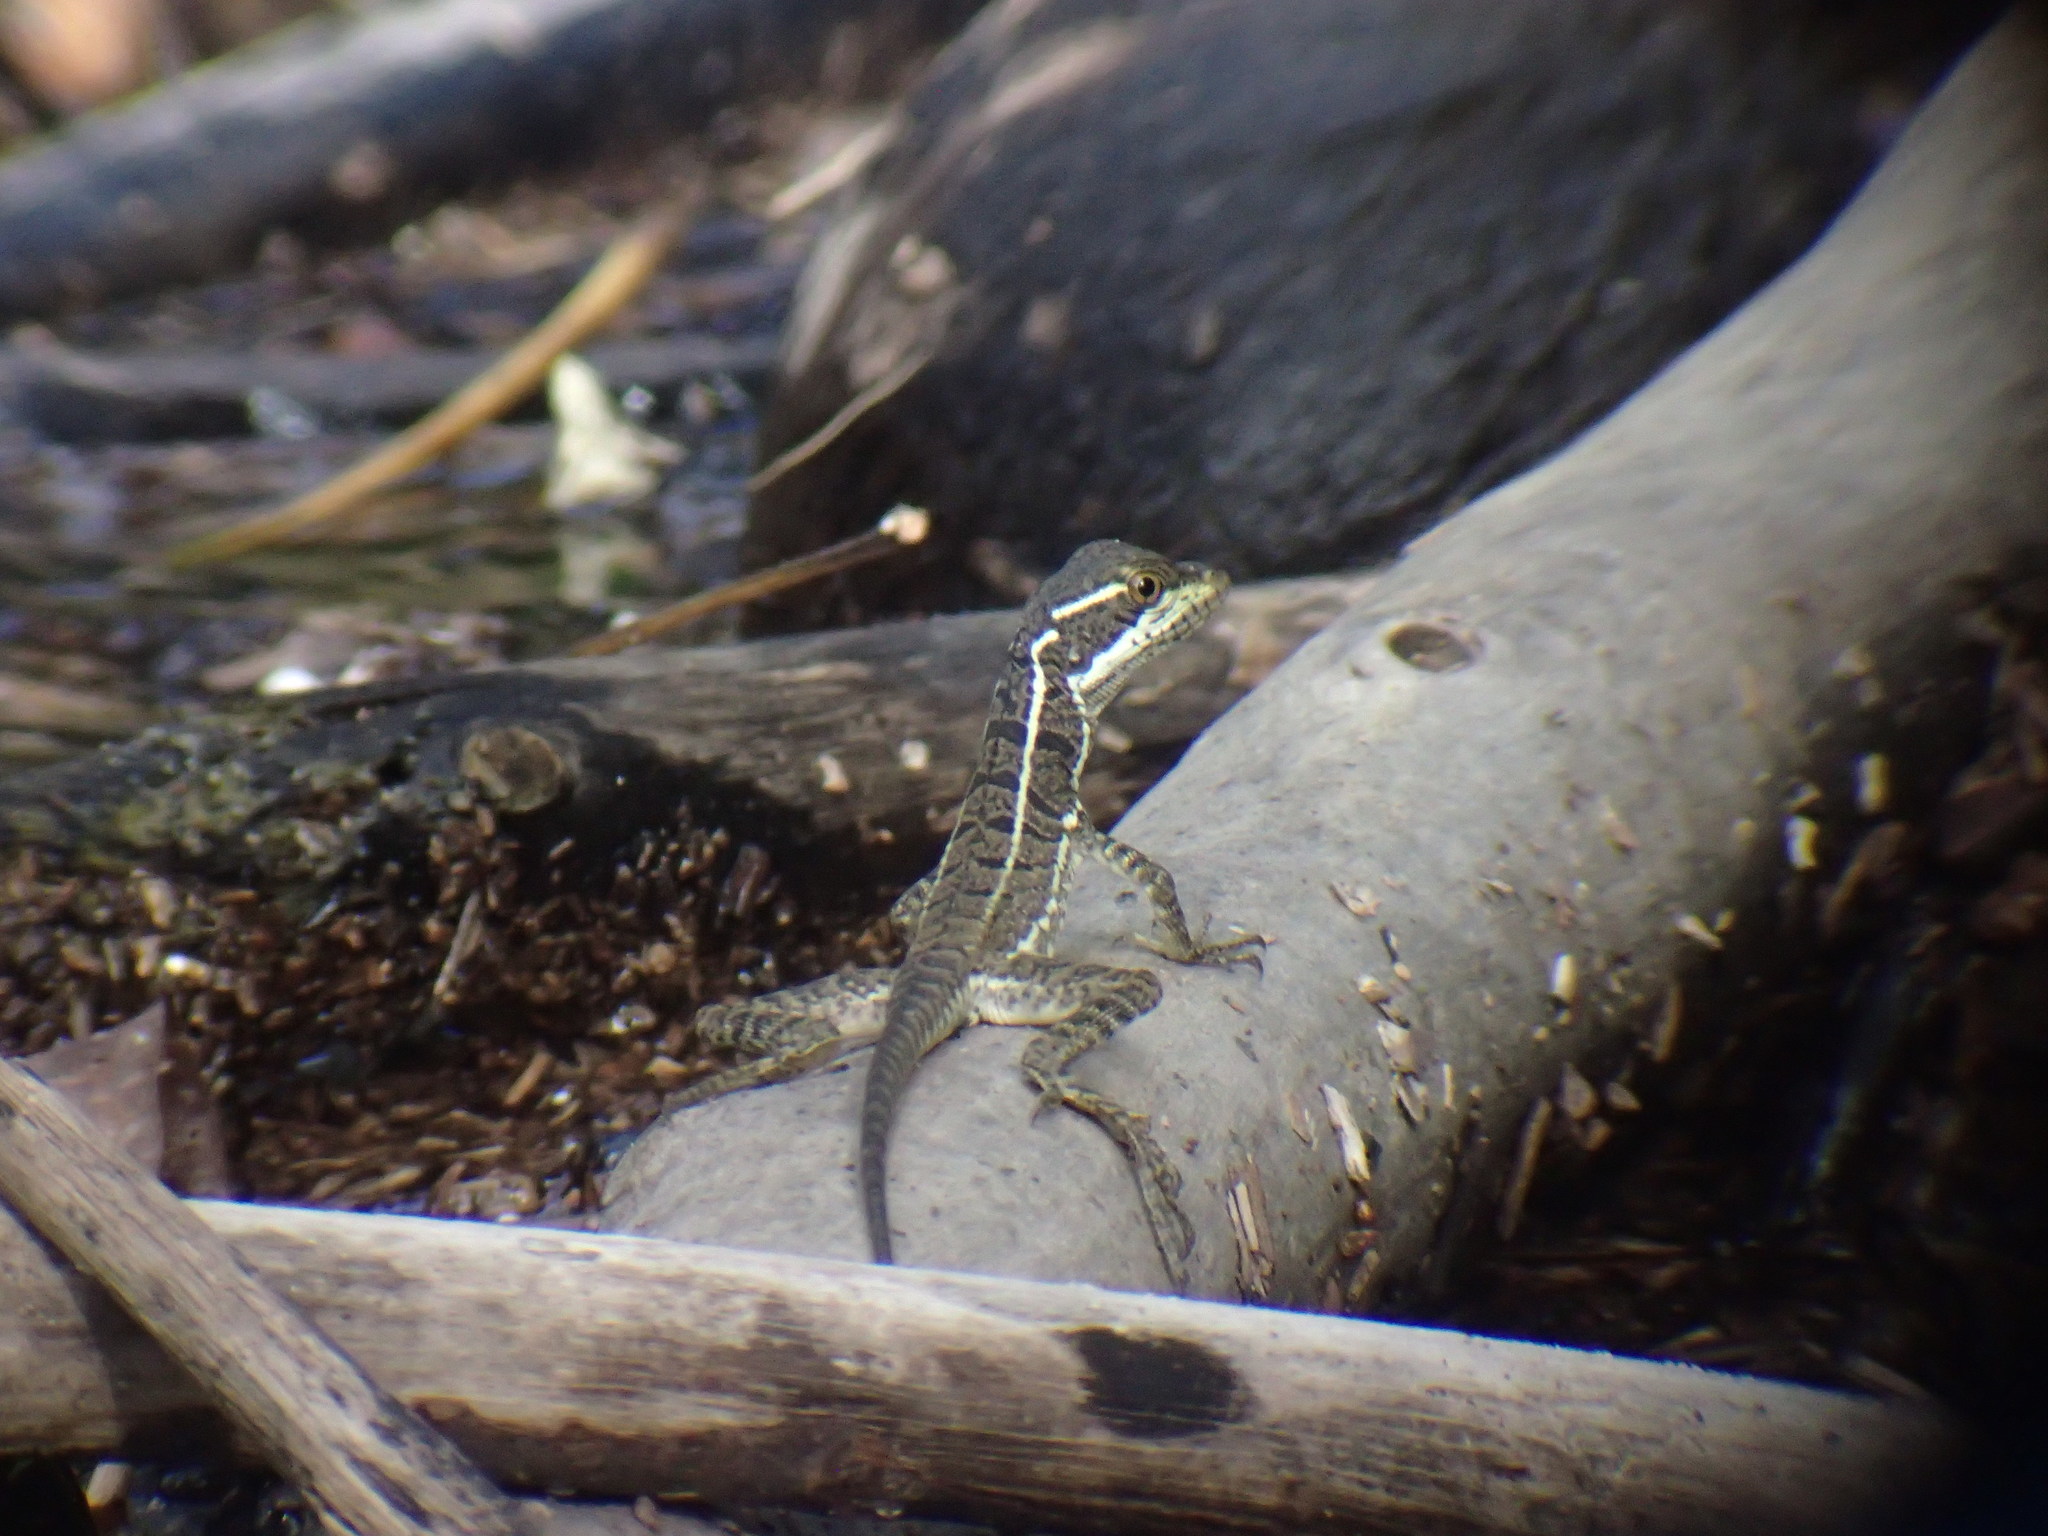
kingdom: Animalia
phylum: Chordata
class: Squamata
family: Corytophanidae
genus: Basiliscus
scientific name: Basiliscus basiliscus
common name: Common basilisk
